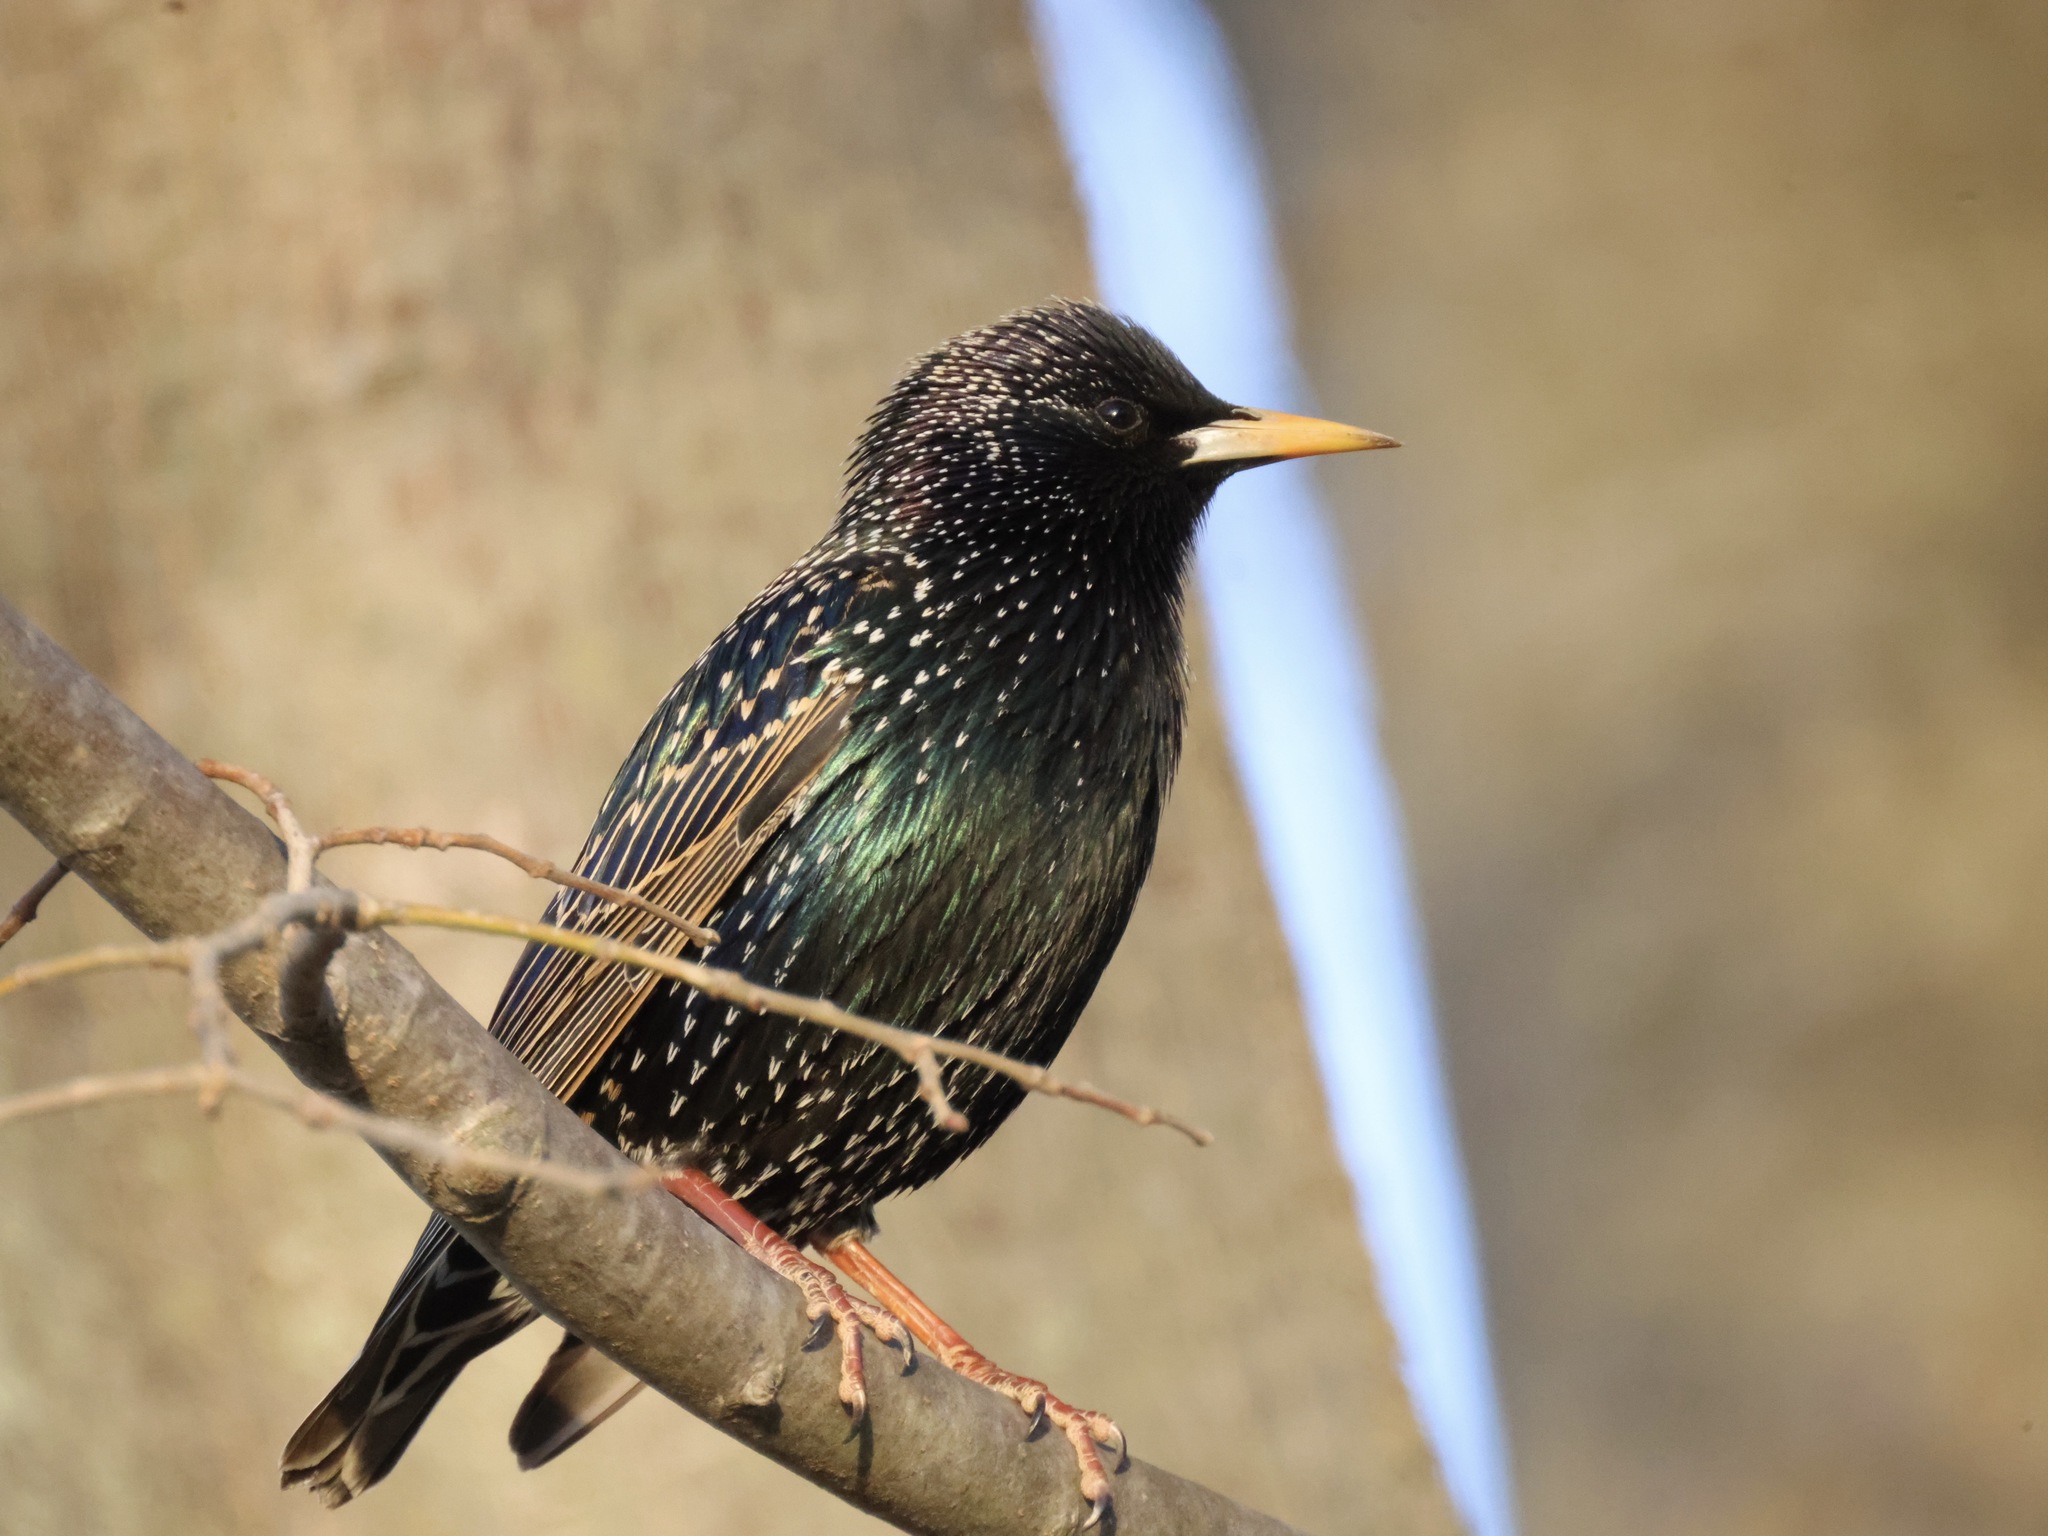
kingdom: Animalia
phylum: Chordata
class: Aves
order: Passeriformes
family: Sturnidae
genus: Sturnus
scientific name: Sturnus vulgaris
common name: Common starling
